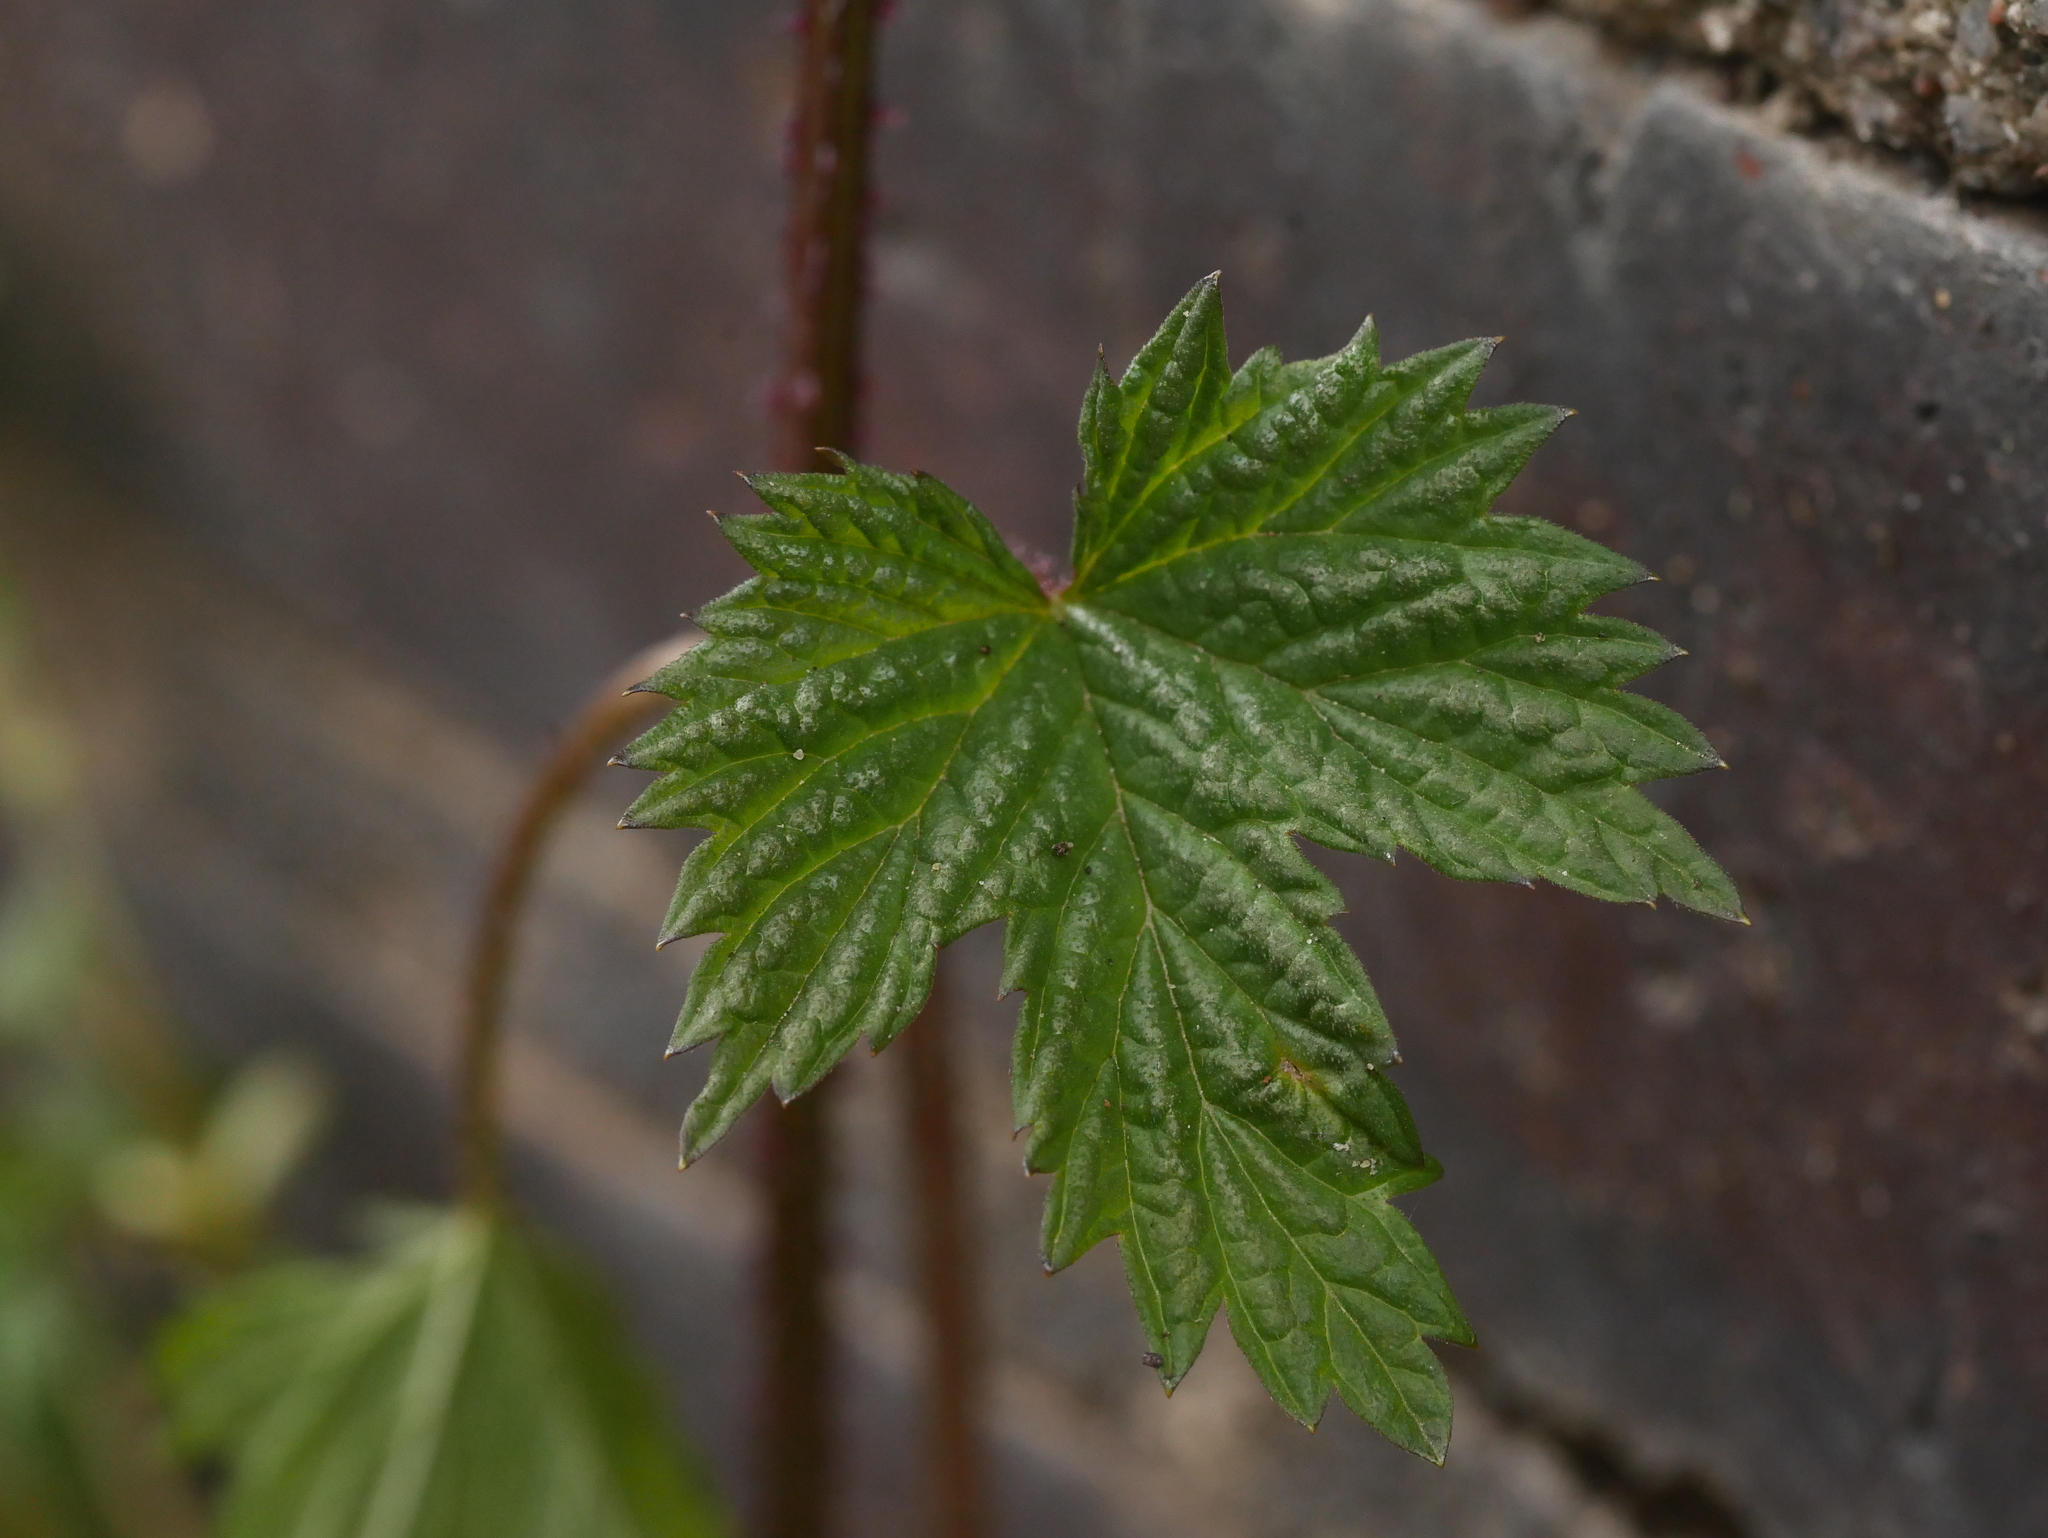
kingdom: Plantae
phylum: Tracheophyta
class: Magnoliopsida
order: Rosales
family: Cannabaceae
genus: Humulus
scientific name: Humulus lupulus
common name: Hop
